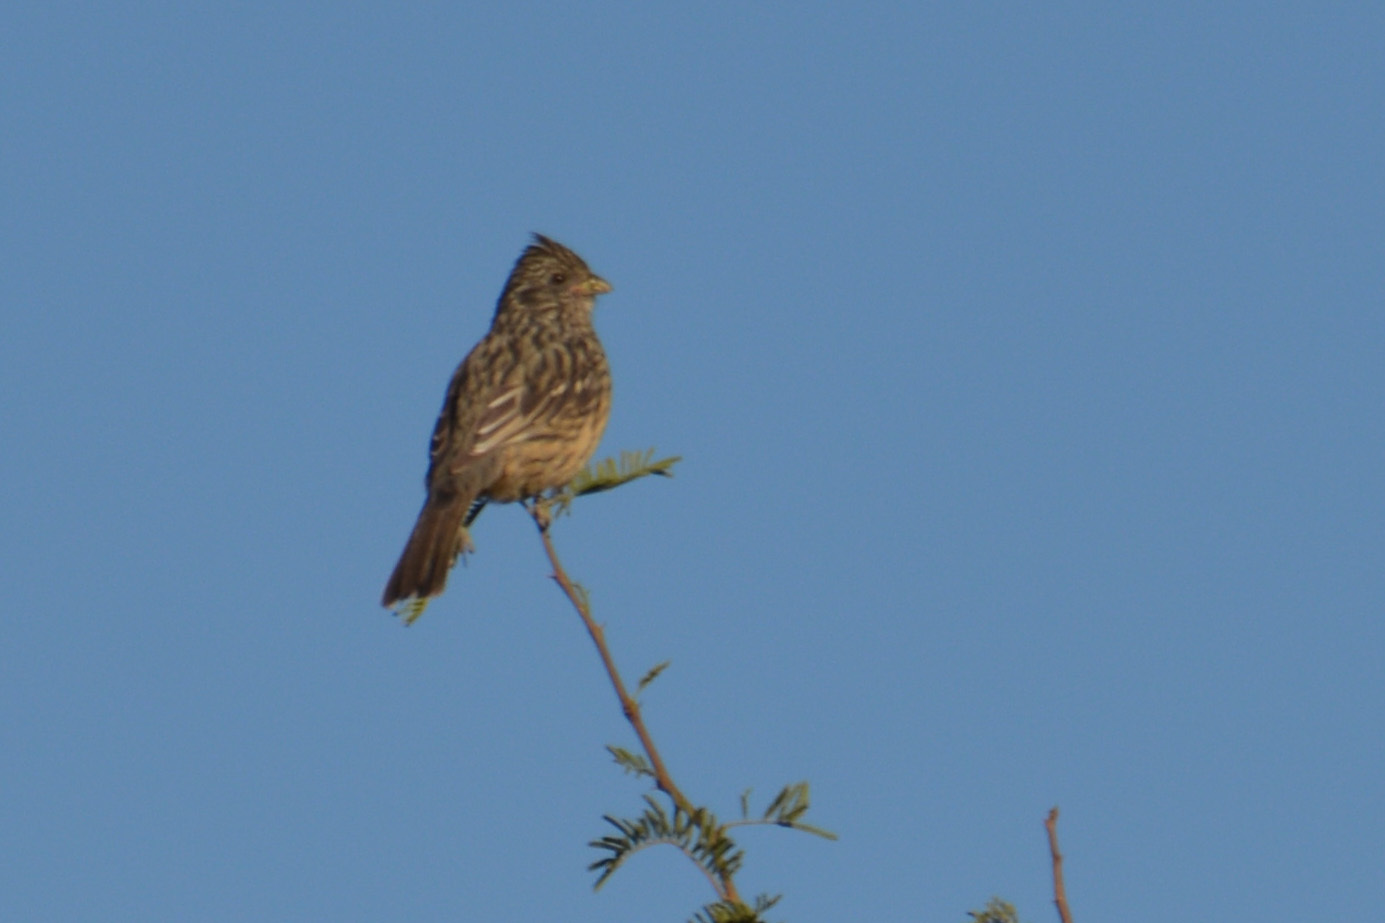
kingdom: Animalia
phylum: Chordata
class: Aves
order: Passeriformes
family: Cotingidae
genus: Phytotoma
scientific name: Phytotoma rutila
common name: White-tipped plantcutter
